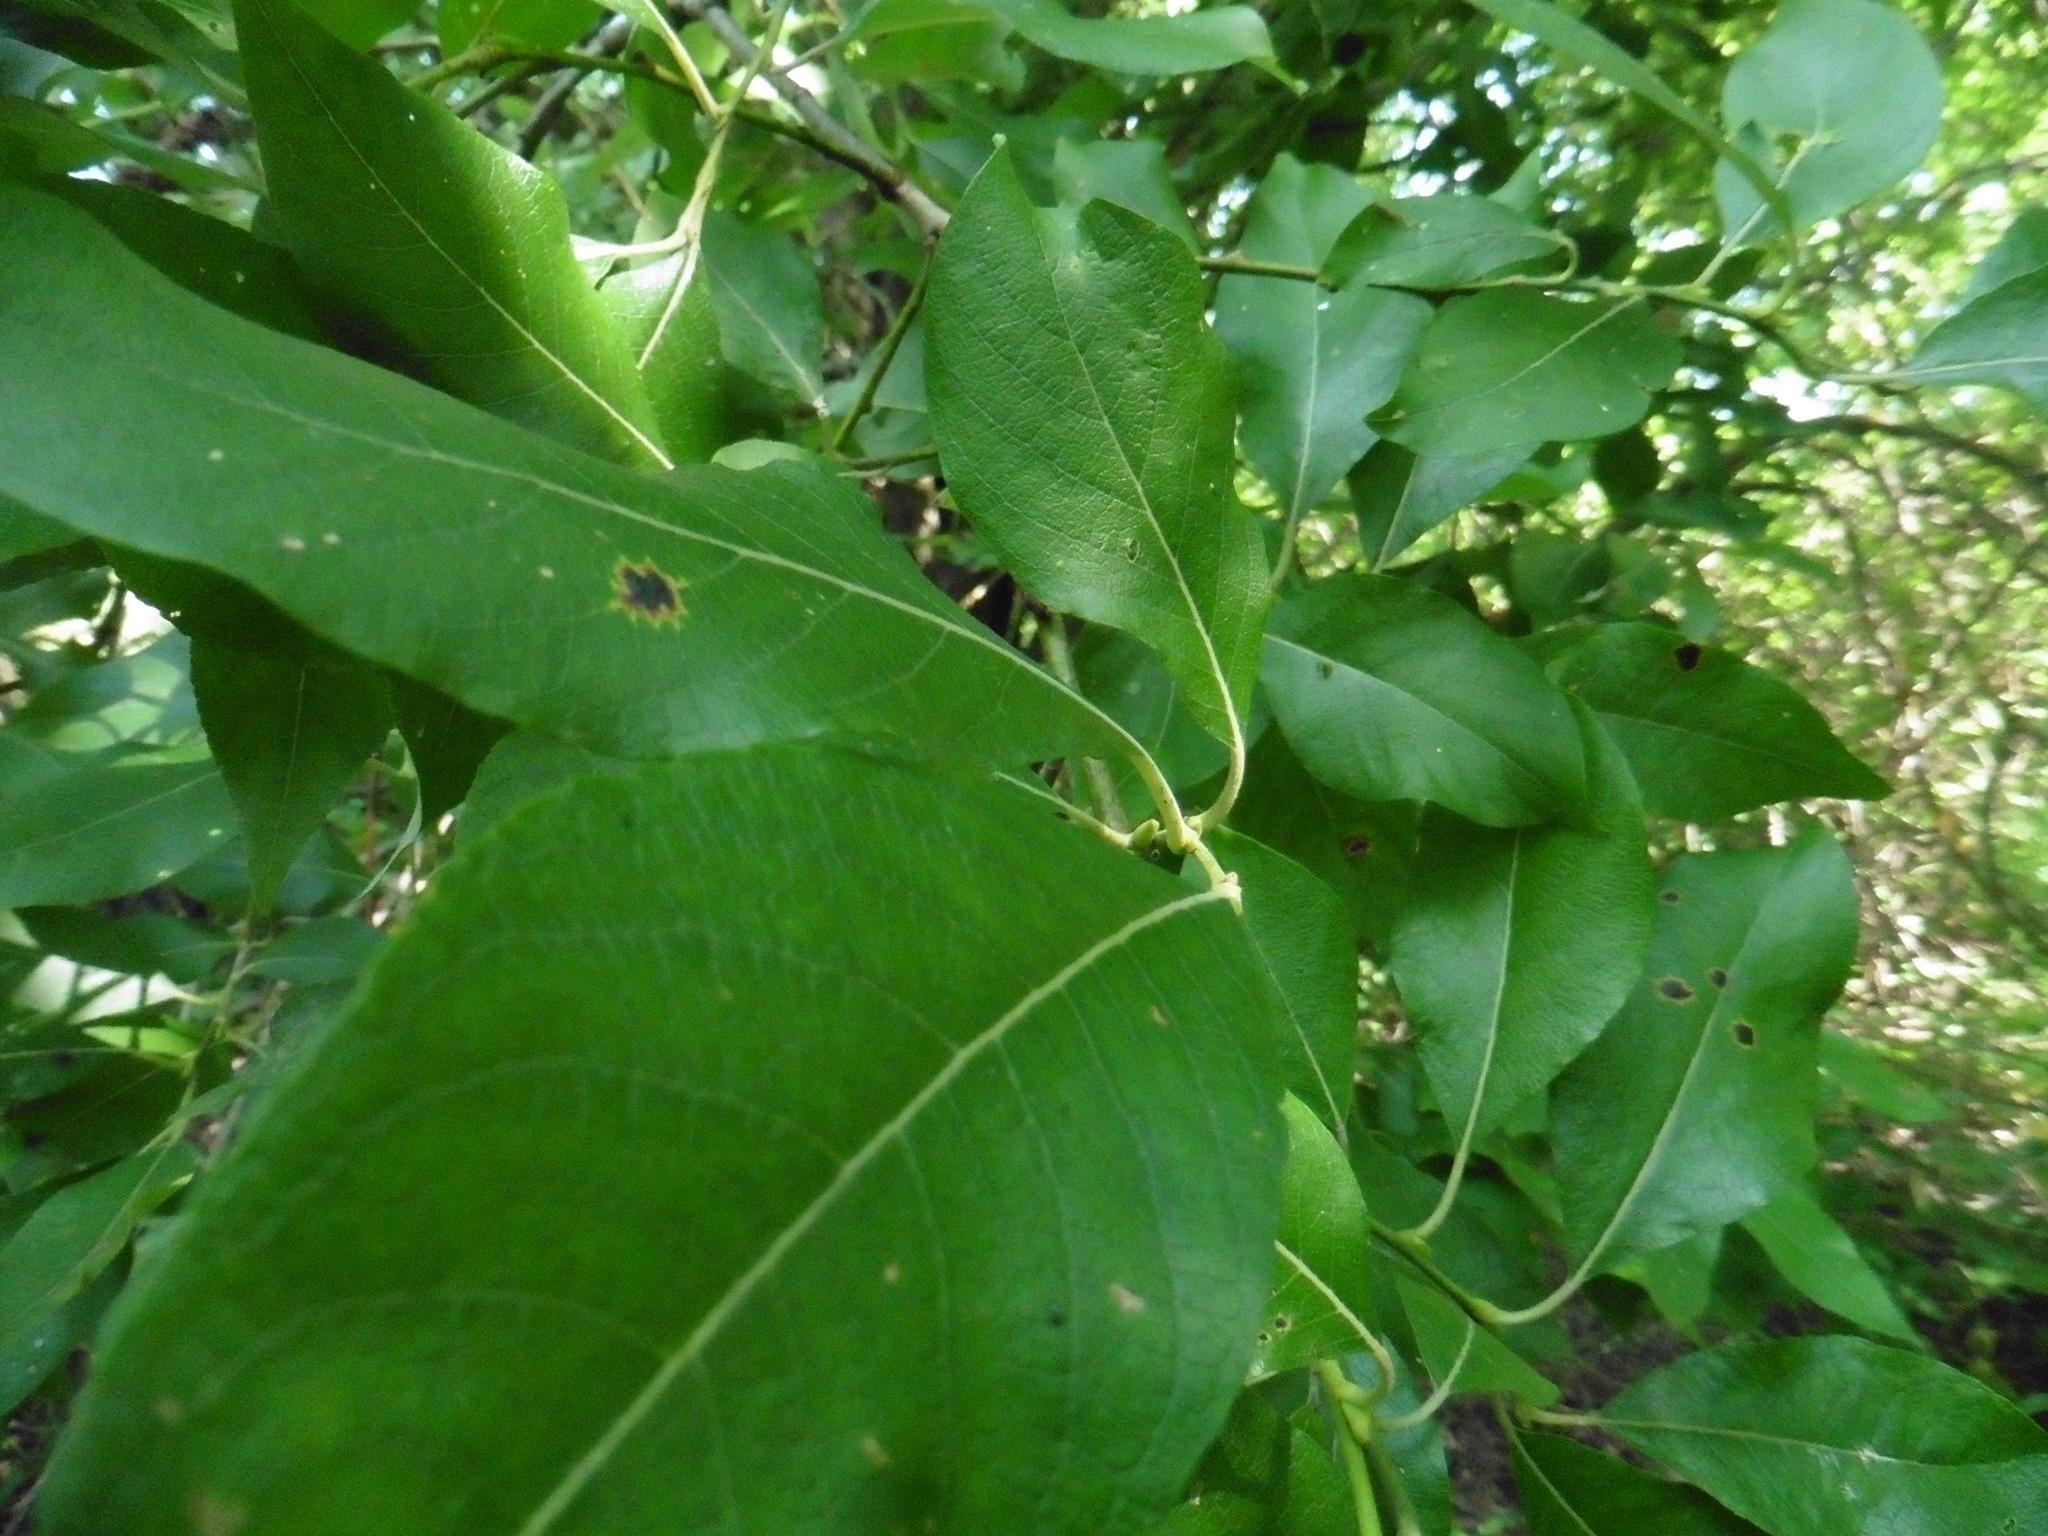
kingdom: Plantae
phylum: Tracheophyta
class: Magnoliopsida
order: Malpighiales
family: Salicaceae
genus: Salix
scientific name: Salix caprea
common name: Goat willow
